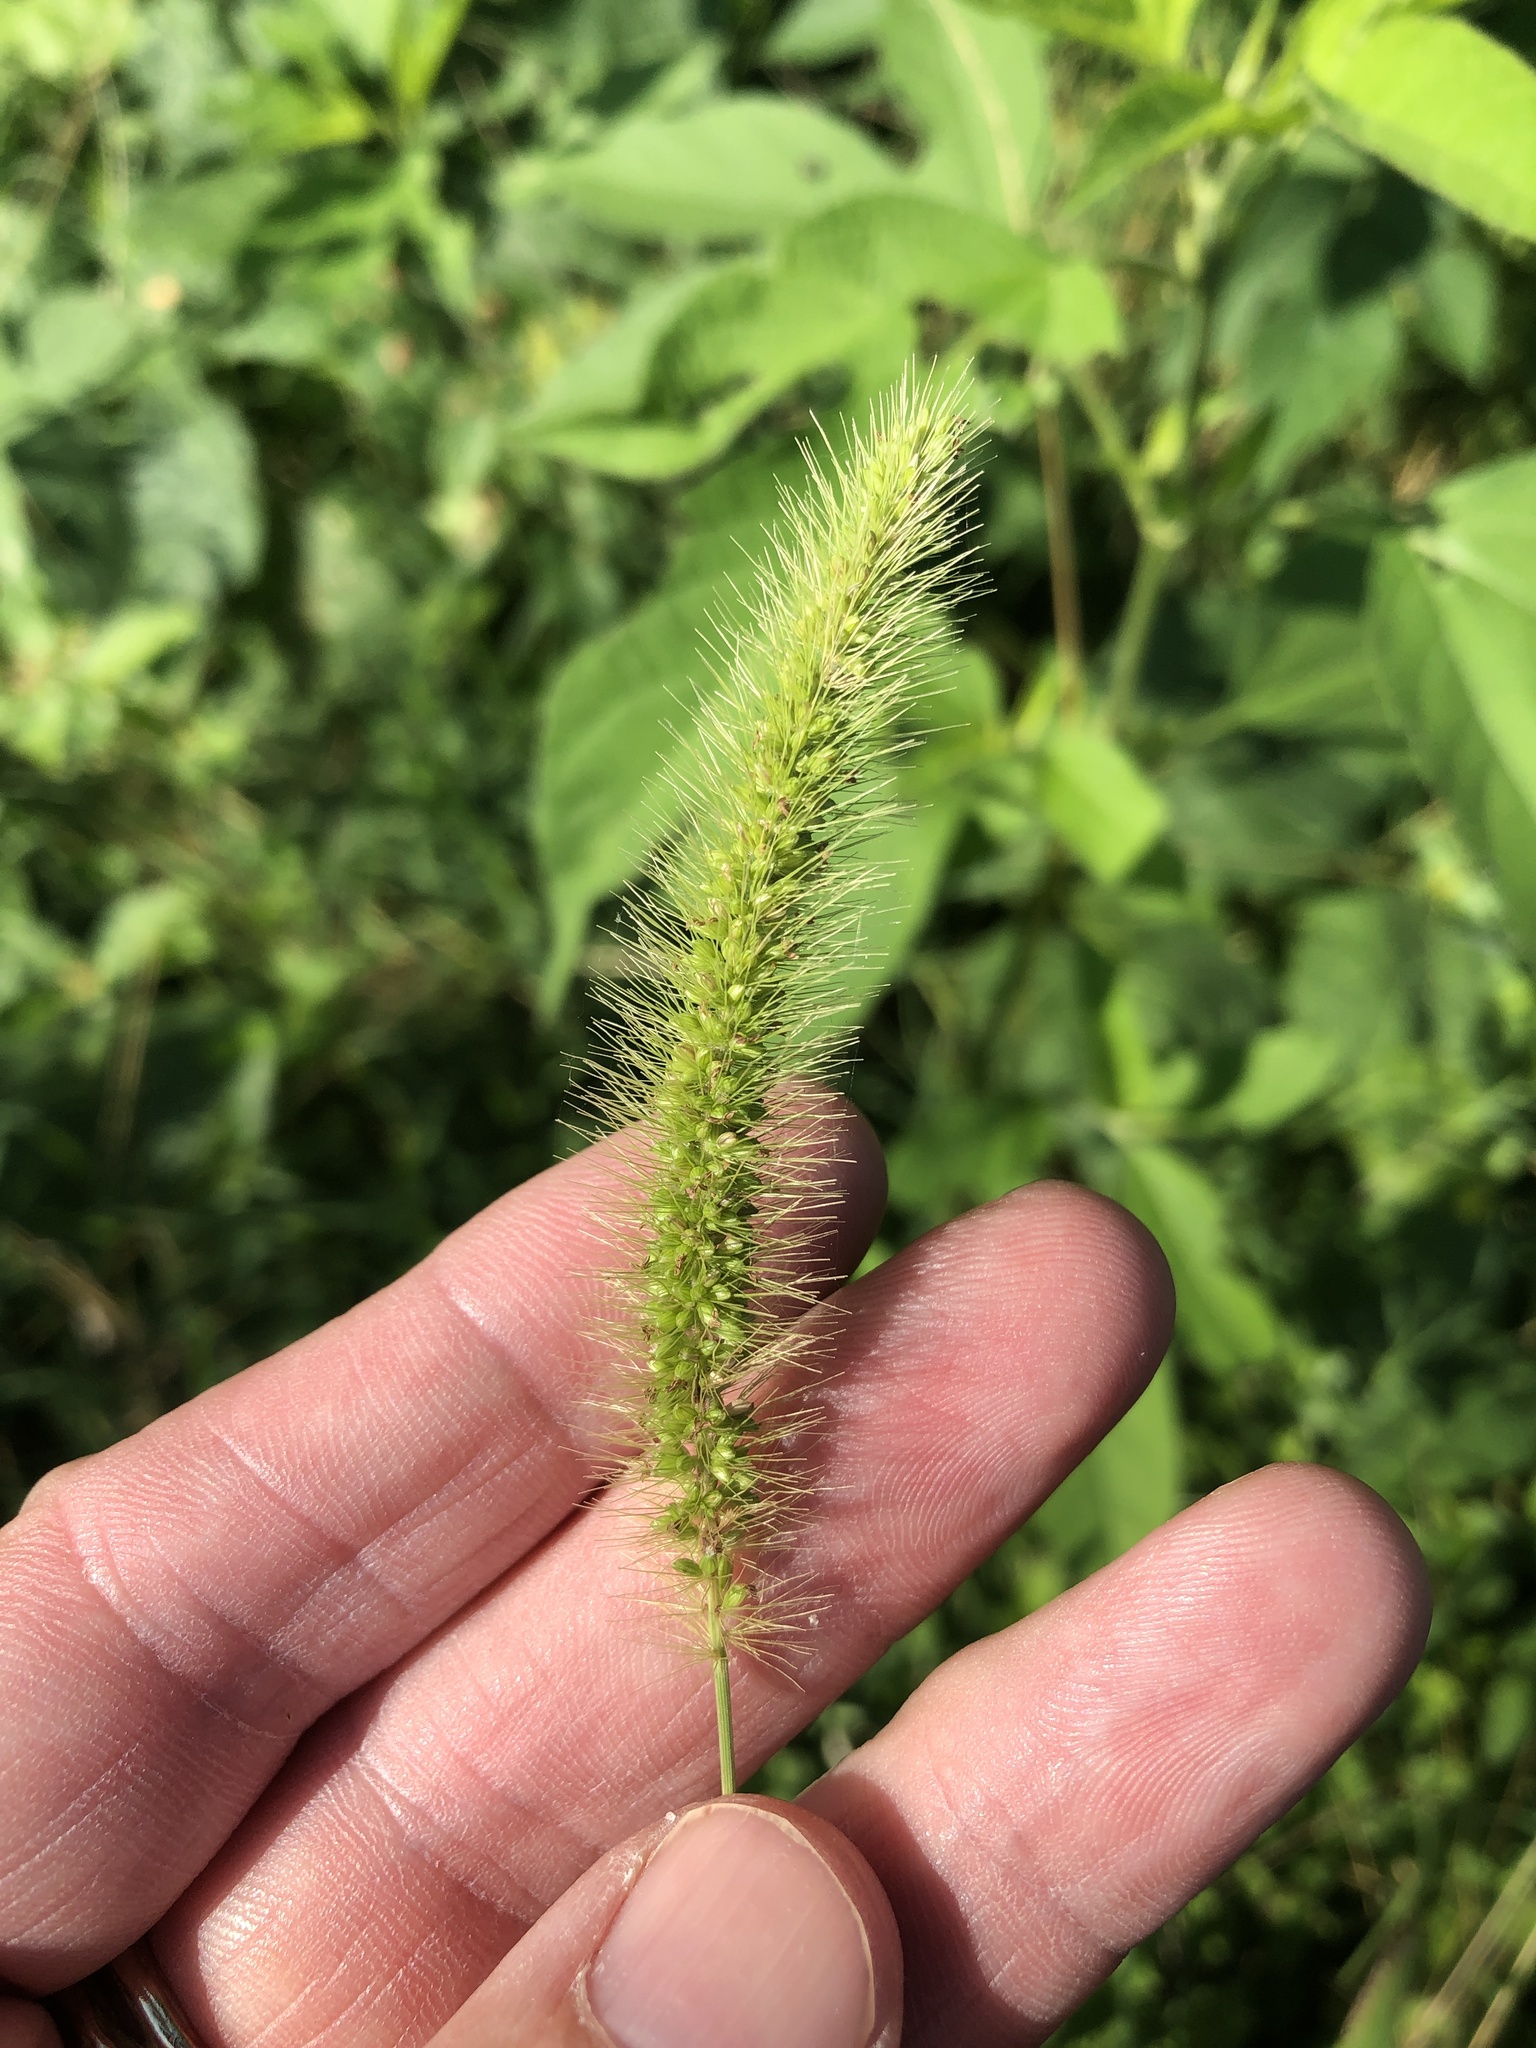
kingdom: Plantae
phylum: Tracheophyta
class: Liliopsida
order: Poales
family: Poaceae
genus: Setaria
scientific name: Setaria viridis
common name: Green bristlegrass
